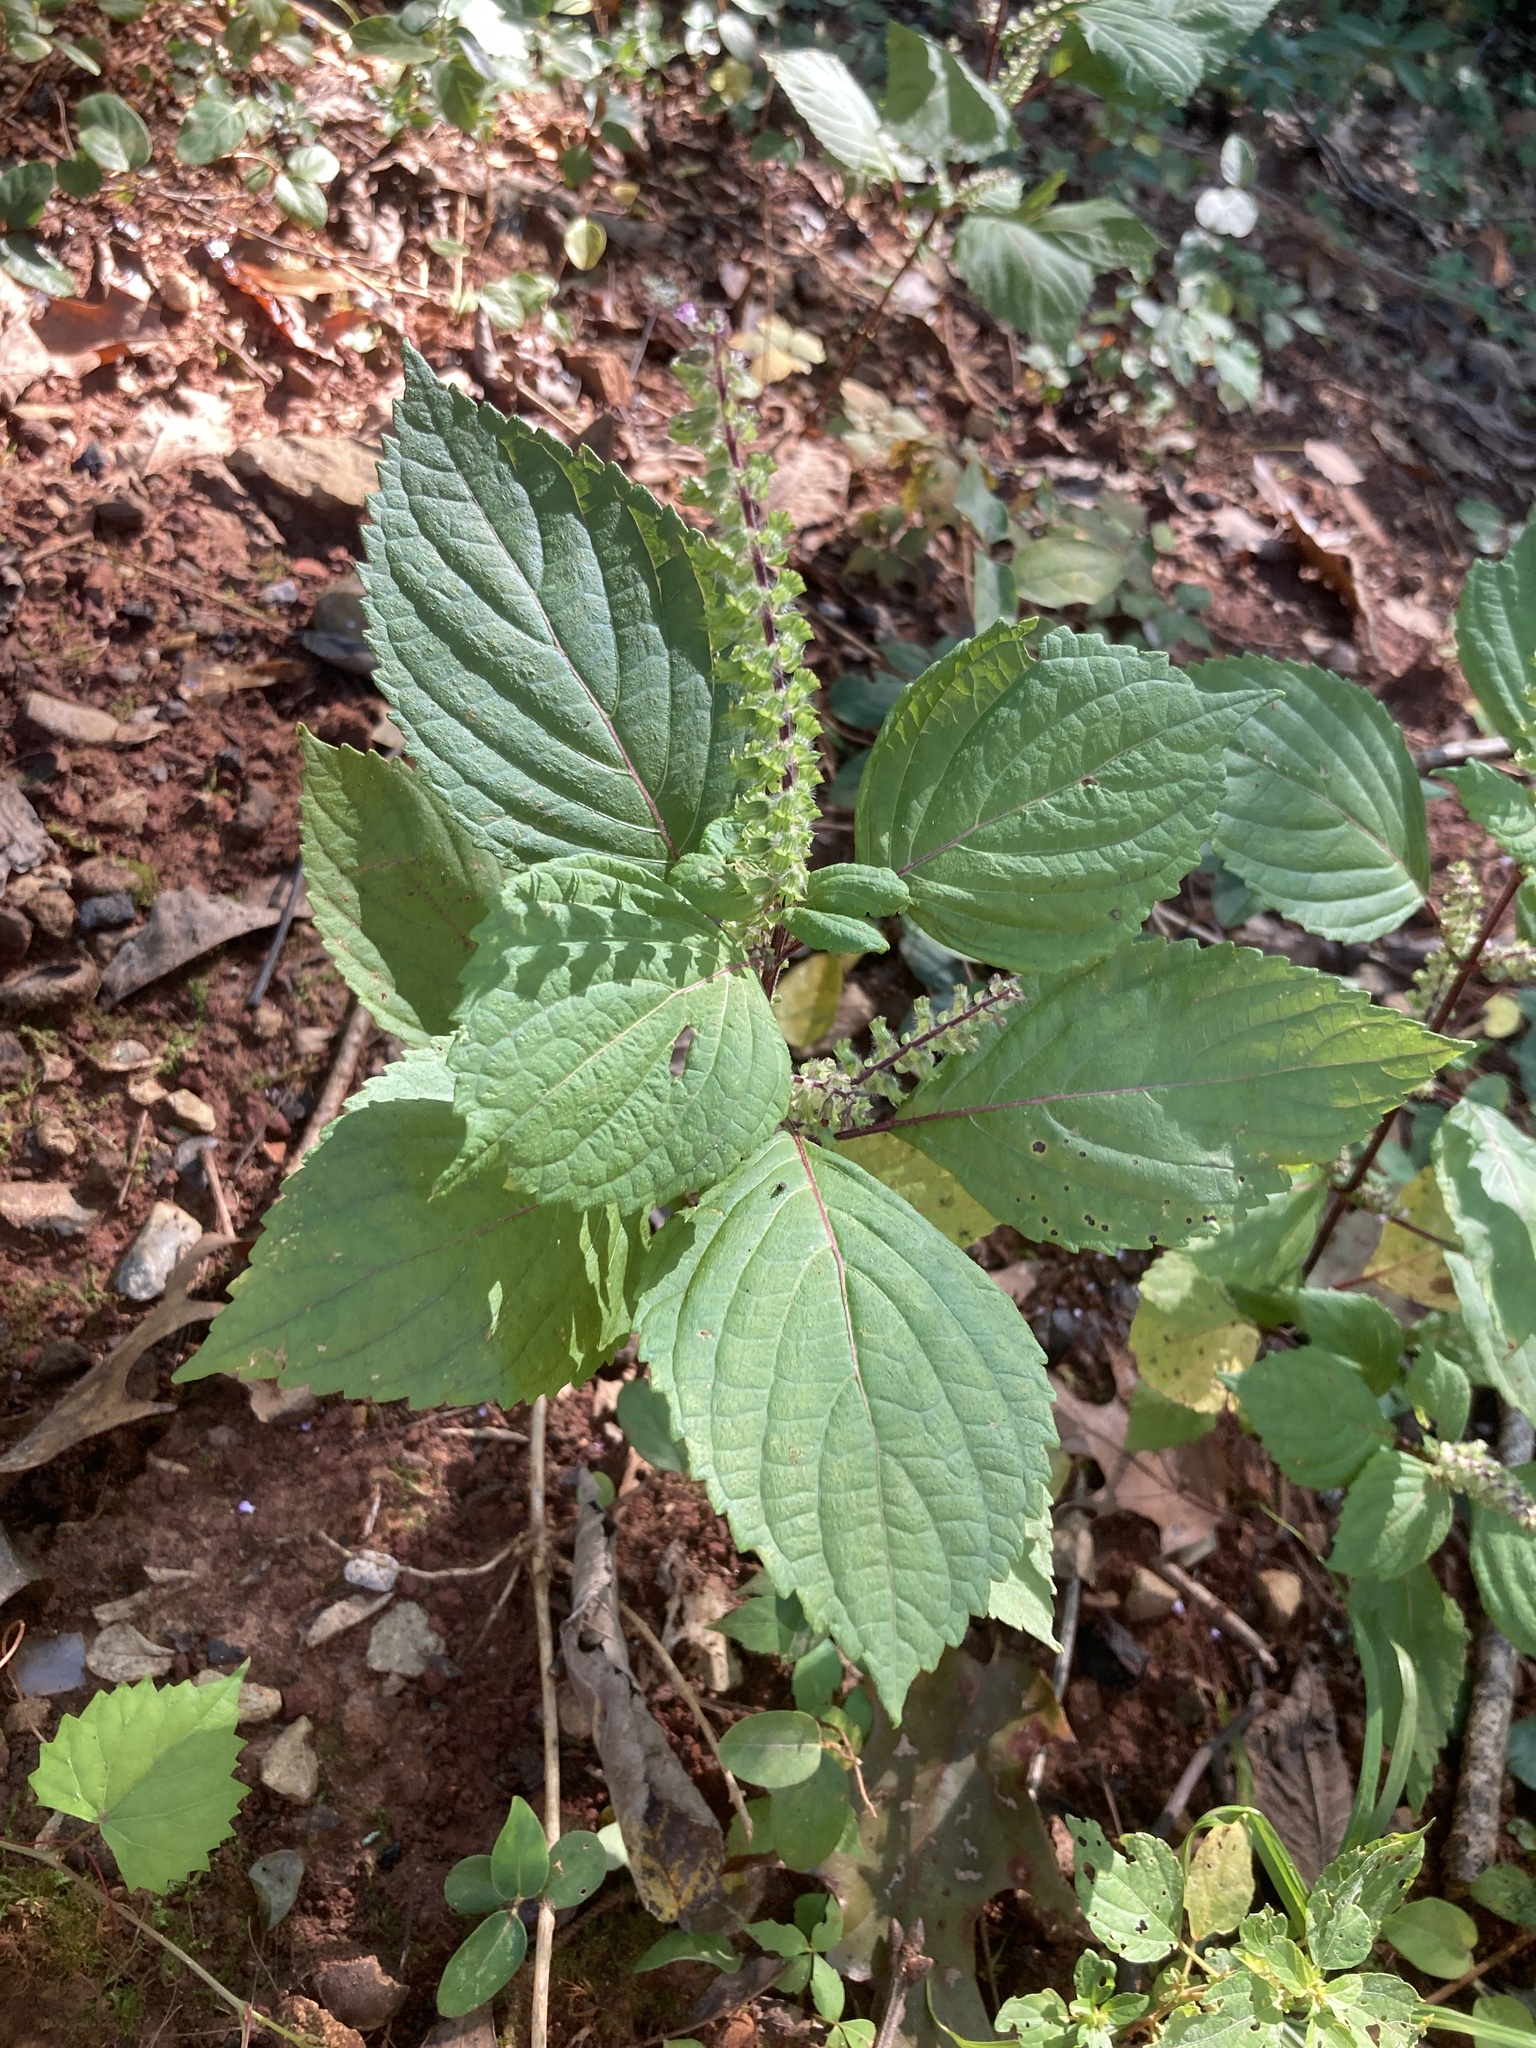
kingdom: Plantae
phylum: Tracheophyta
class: Magnoliopsida
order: Lamiales
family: Lamiaceae
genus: Perilla
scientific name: Perilla frutescens
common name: Perilla
